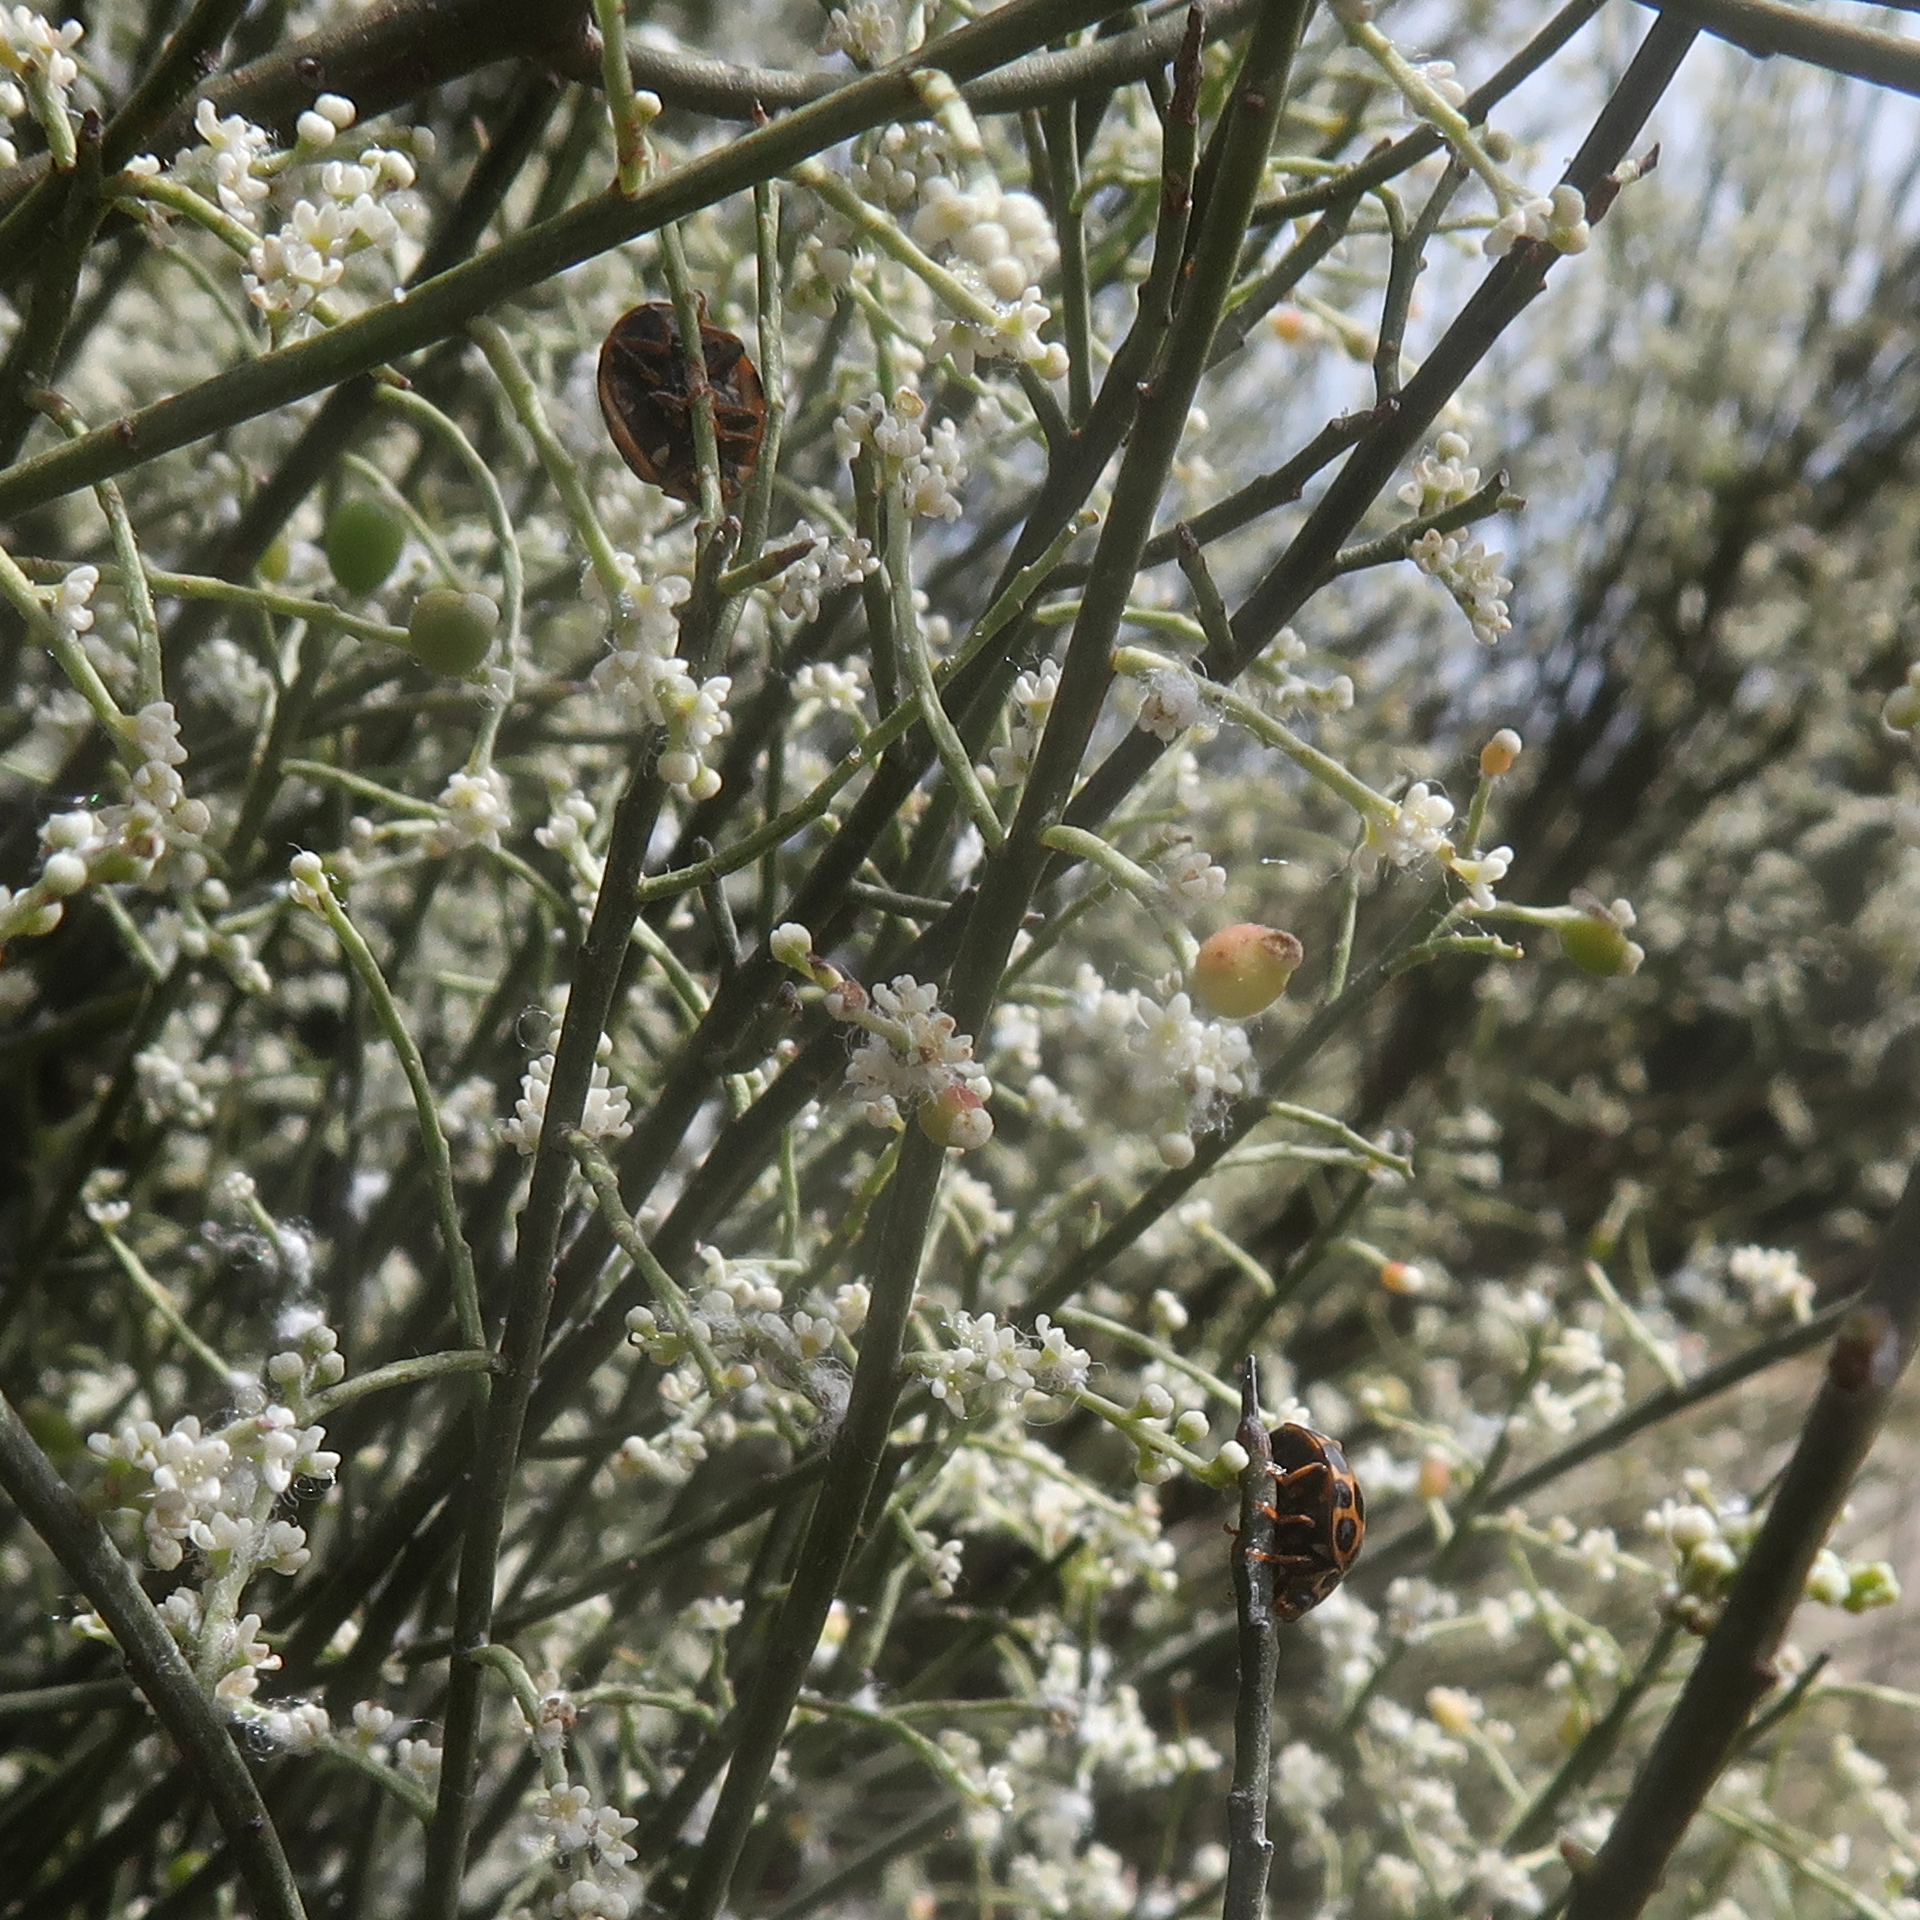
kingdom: Animalia
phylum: Arthropoda
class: Insecta
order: Coleoptera
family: Coccinellidae
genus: Harmonia
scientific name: Harmonia conformis
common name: Common spotted ladybird beetle
